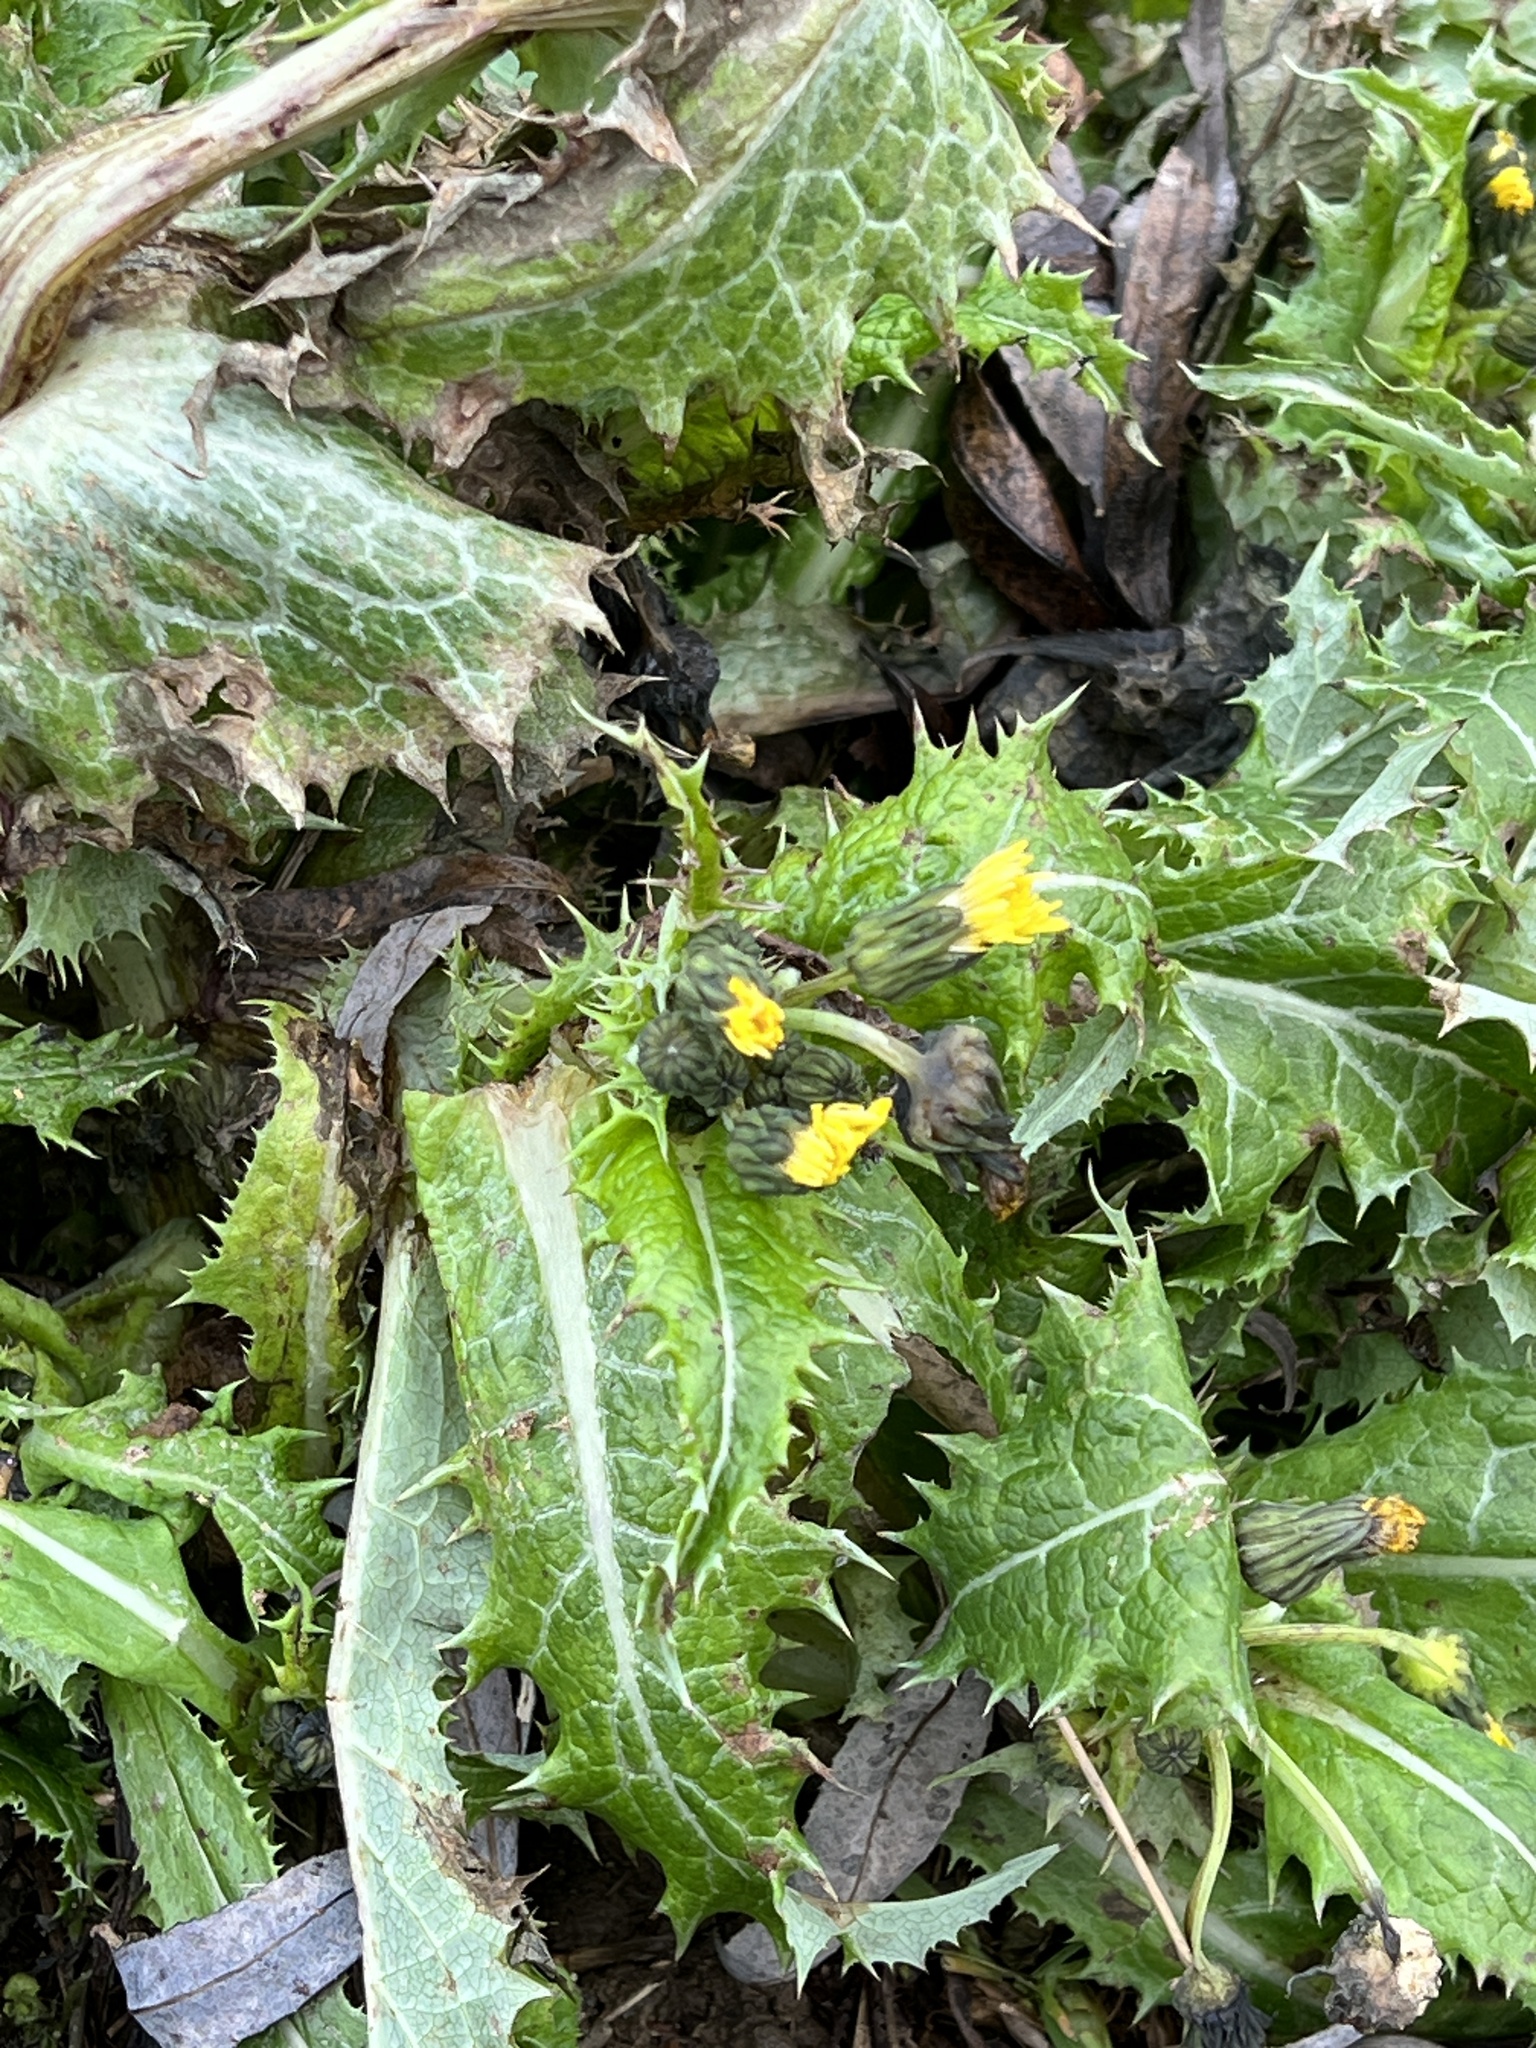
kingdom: Plantae
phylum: Tracheophyta
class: Magnoliopsida
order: Asterales
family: Asteraceae
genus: Sonchus
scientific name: Sonchus asper
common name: Prickly sow-thistle
